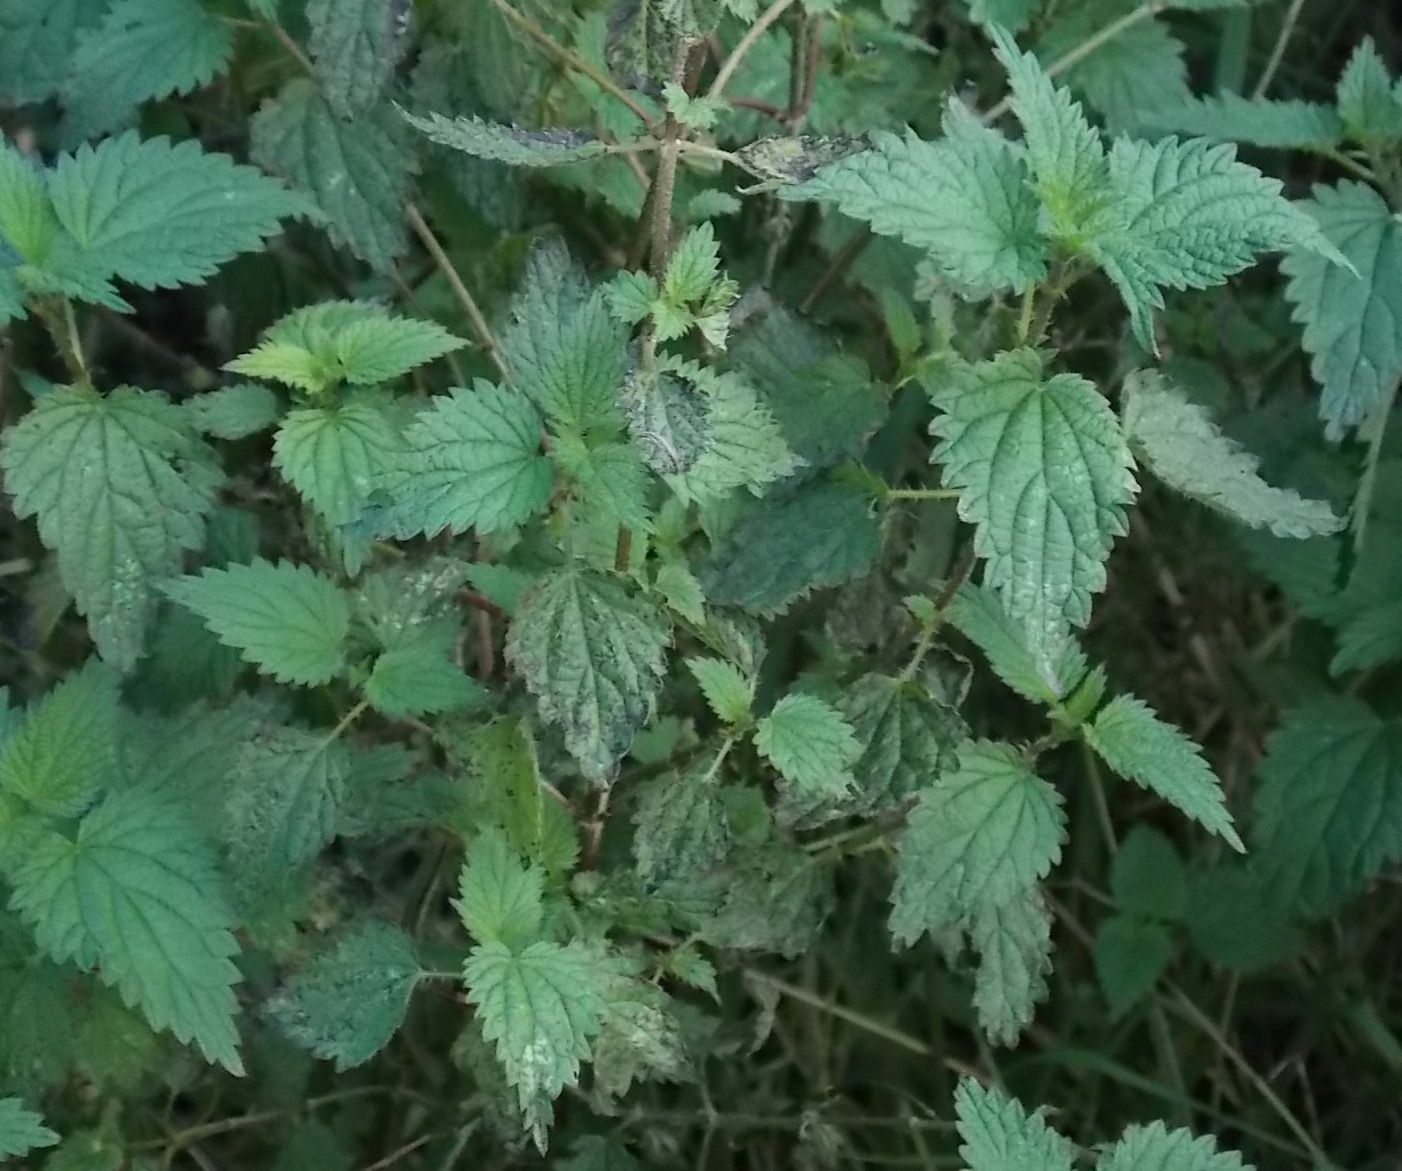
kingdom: Plantae
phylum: Tracheophyta
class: Magnoliopsida
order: Rosales
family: Urticaceae
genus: Urtica
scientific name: Urtica dioica
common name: Common nettle
